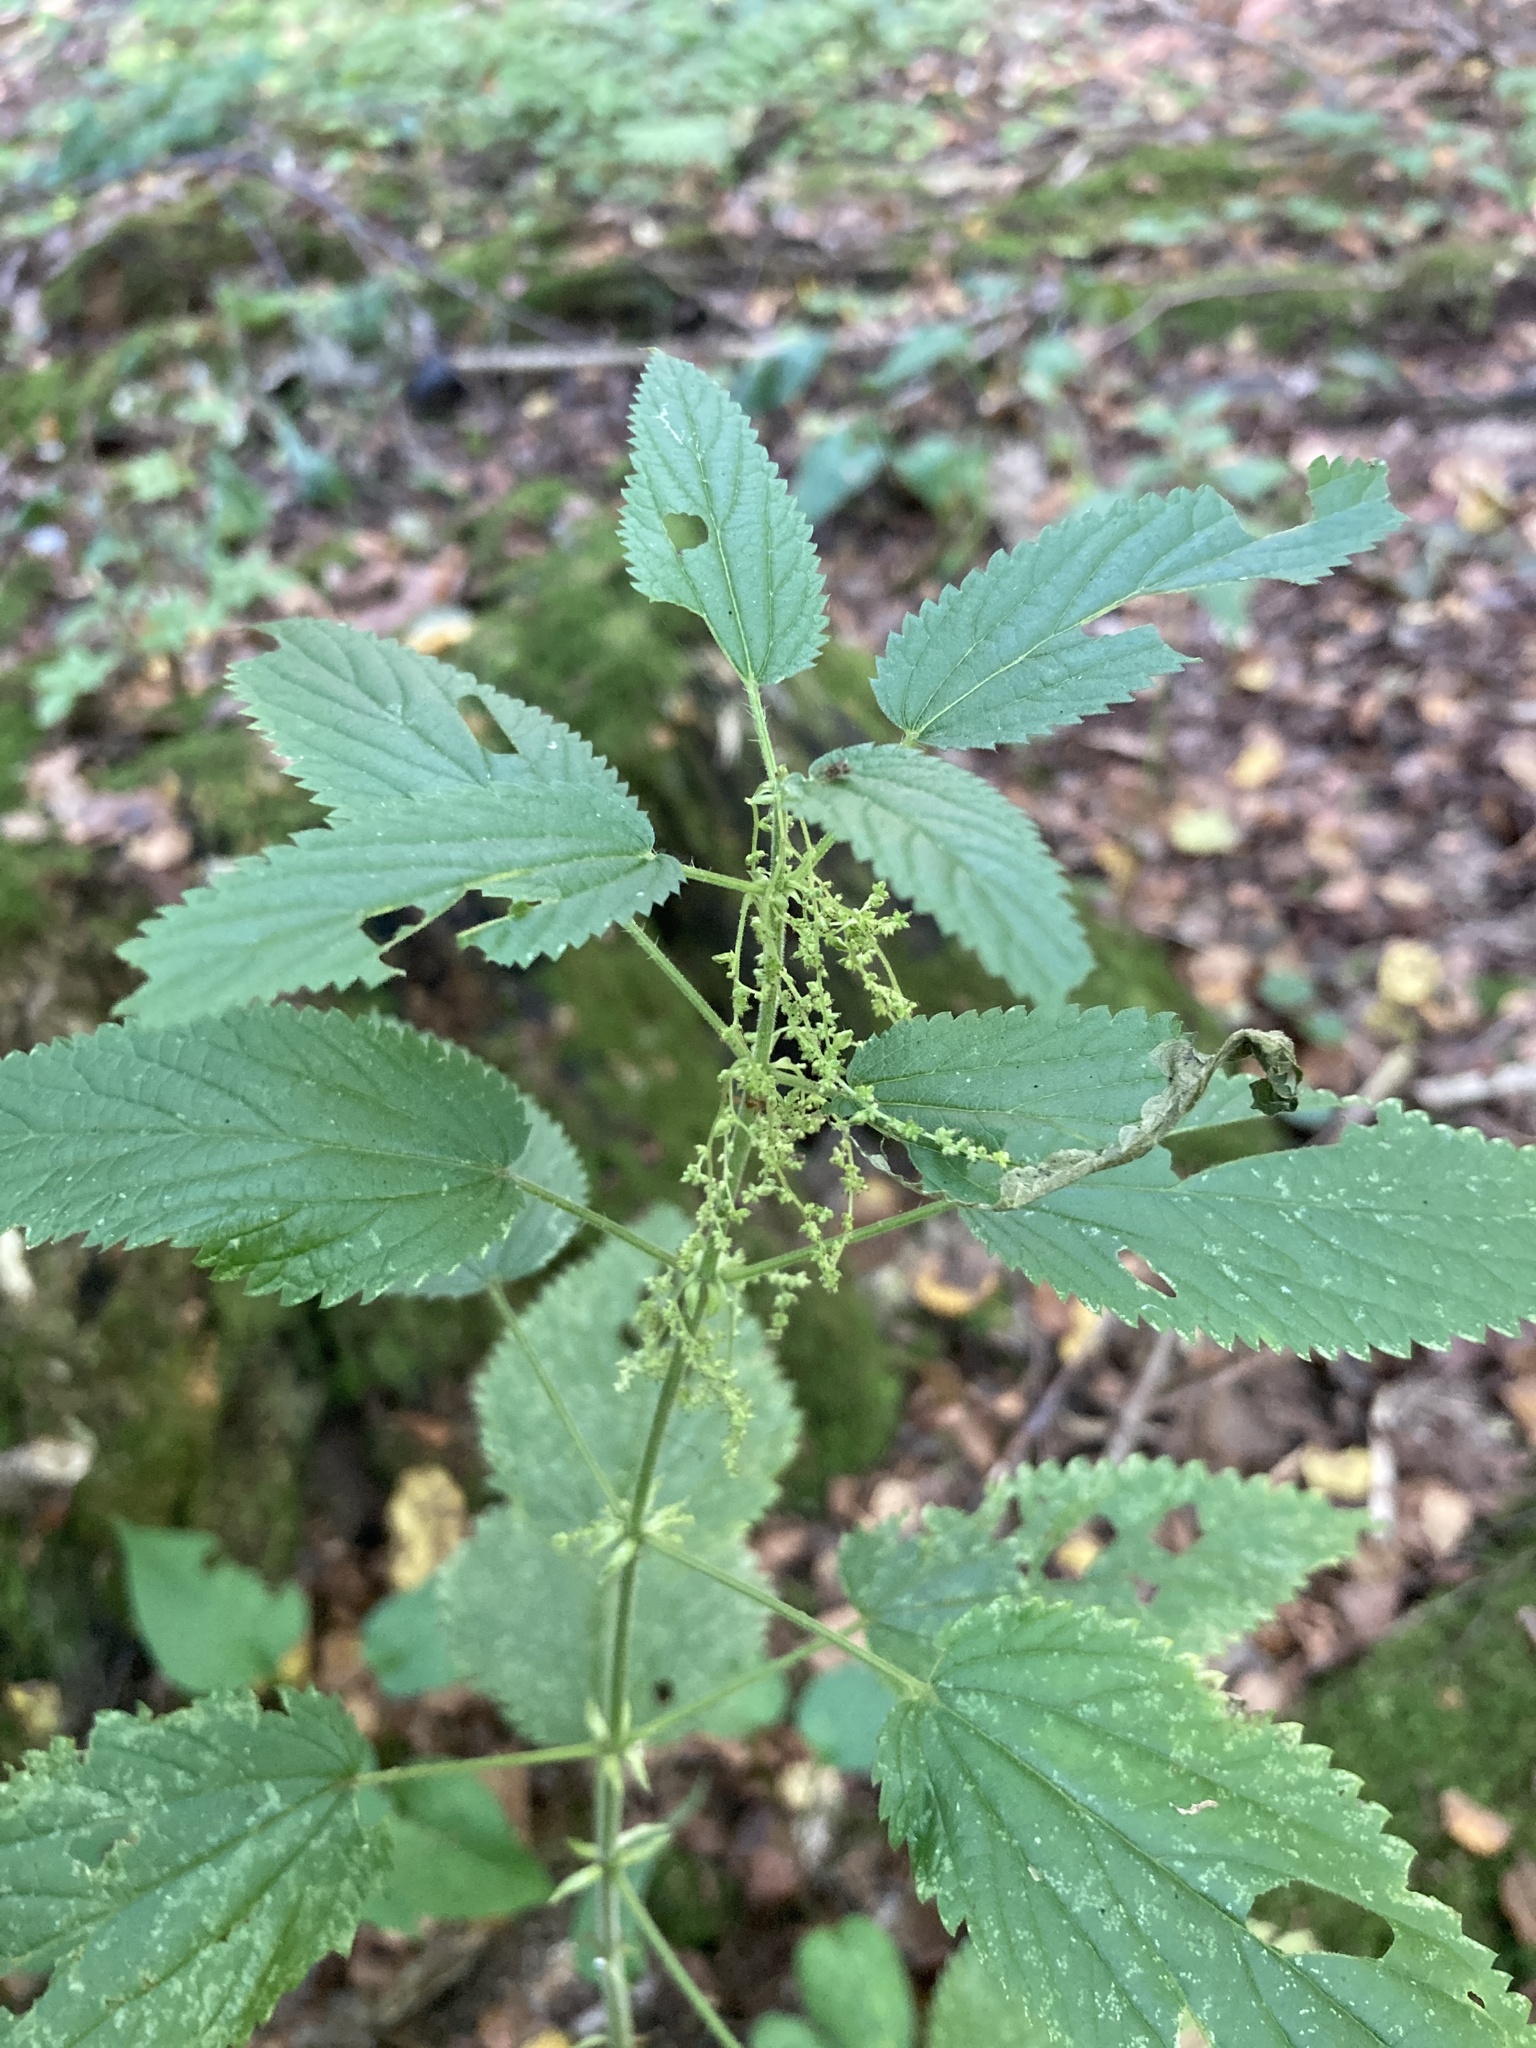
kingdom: Plantae
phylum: Tracheophyta
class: Magnoliopsida
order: Rosales
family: Urticaceae
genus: Urtica
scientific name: Urtica dioica
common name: Common nettle
